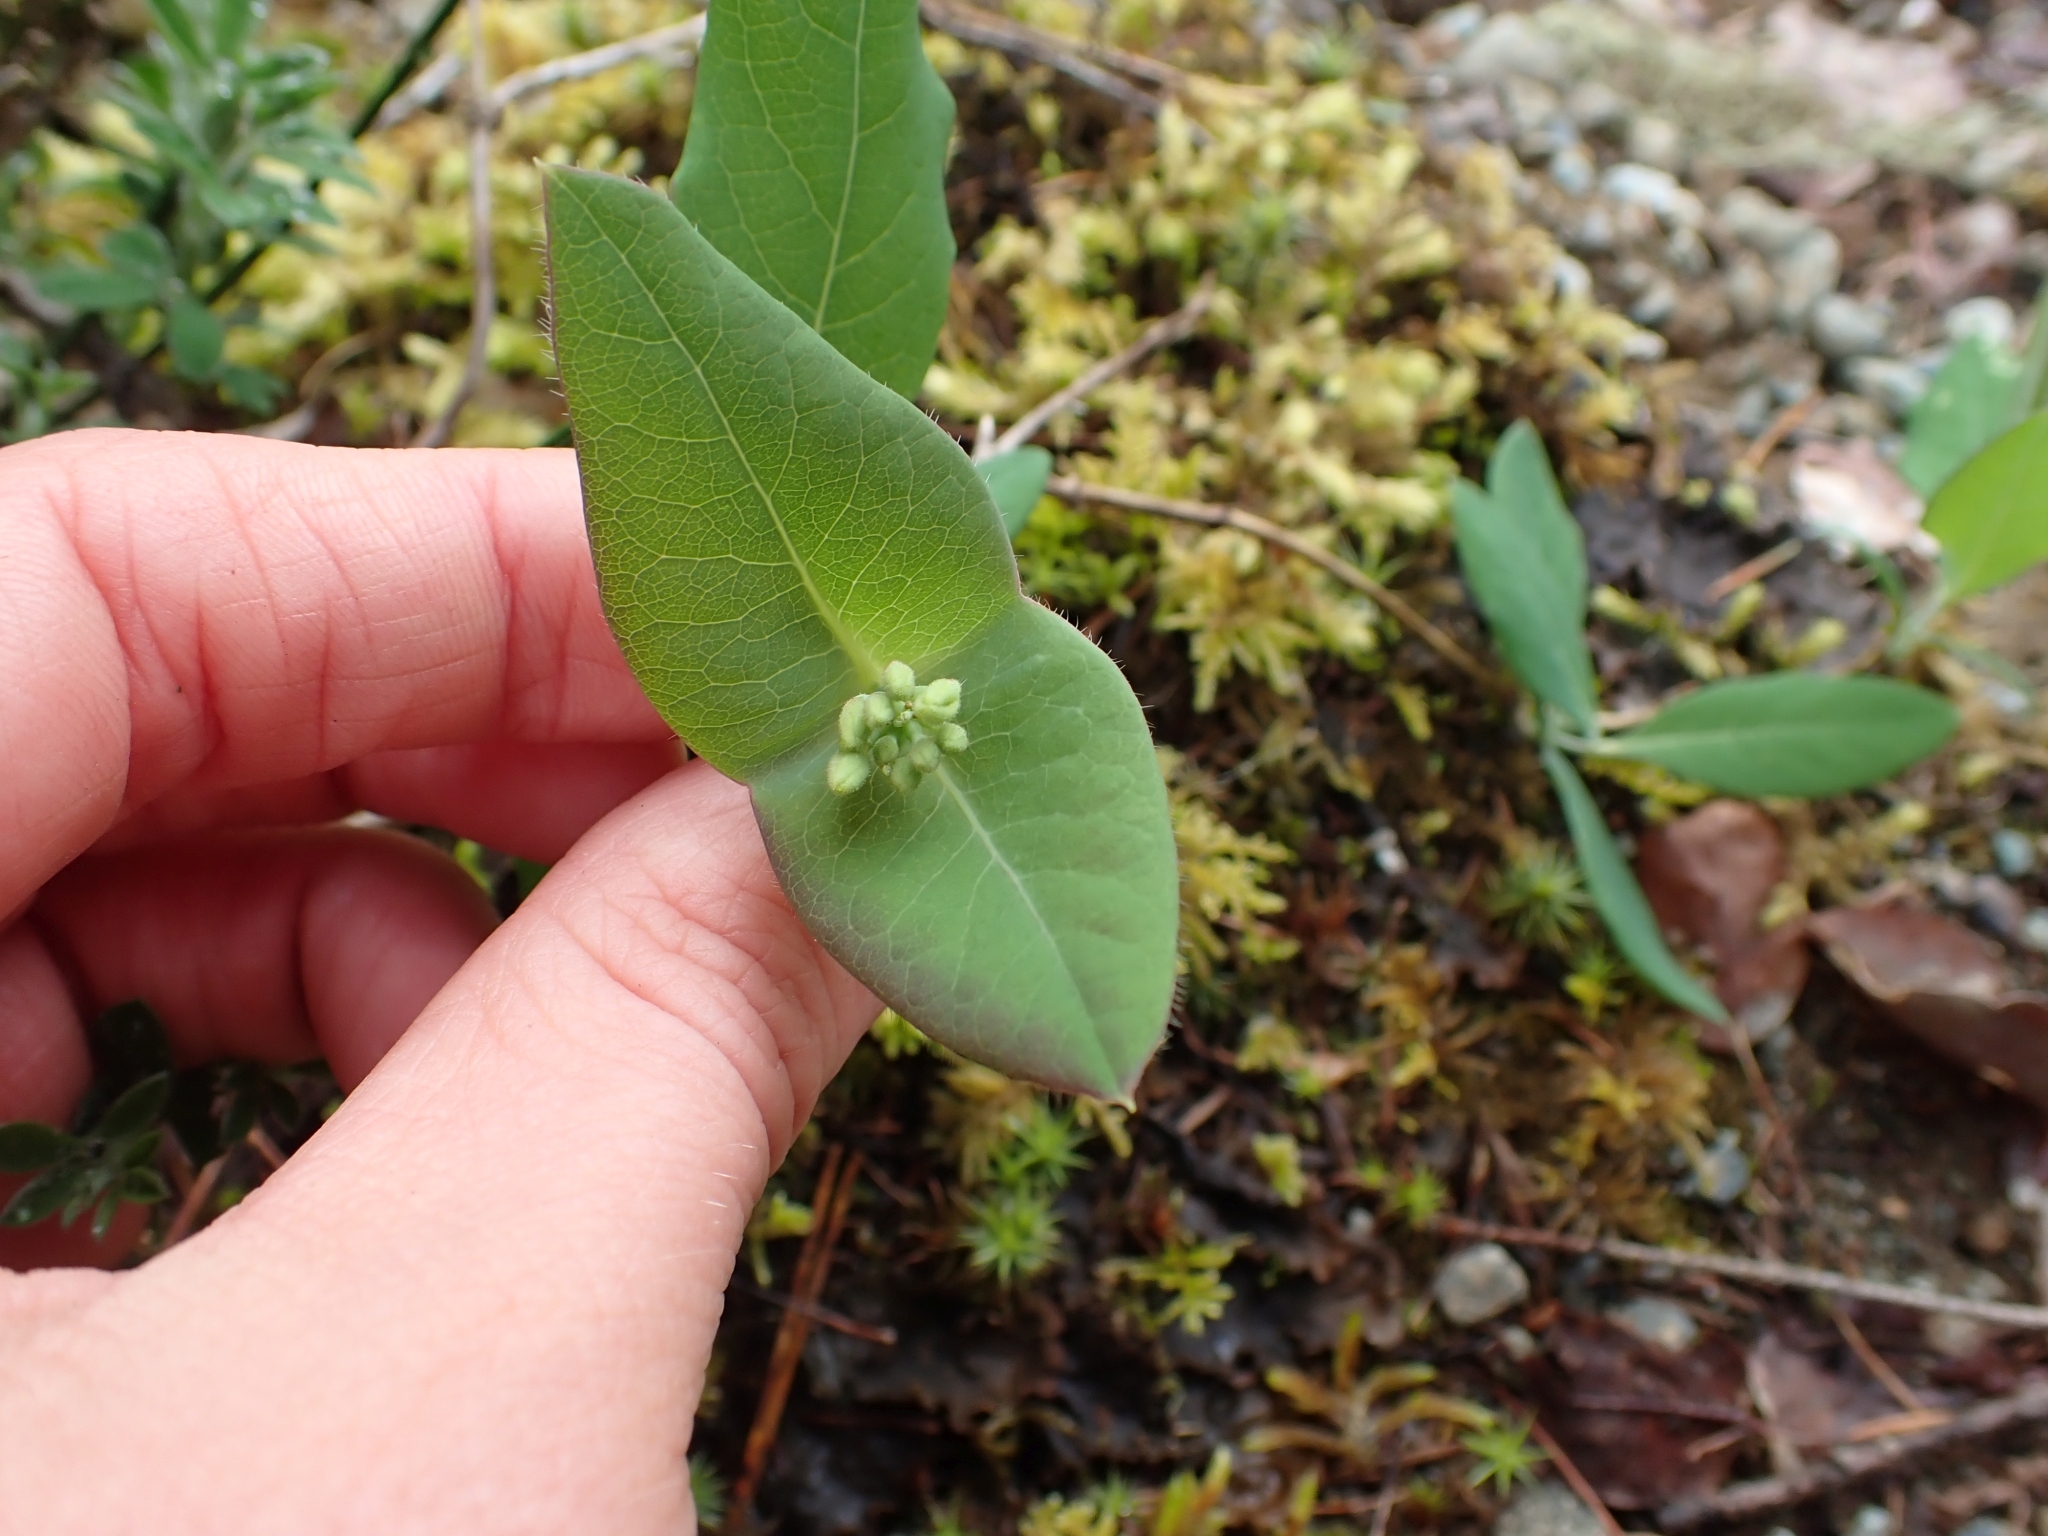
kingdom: Plantae
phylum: Tracheophyta
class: Magnoliopsida
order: Dipsacales
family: Caprifoliaceae
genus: Lonicera
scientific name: Lonicera ciliosa
